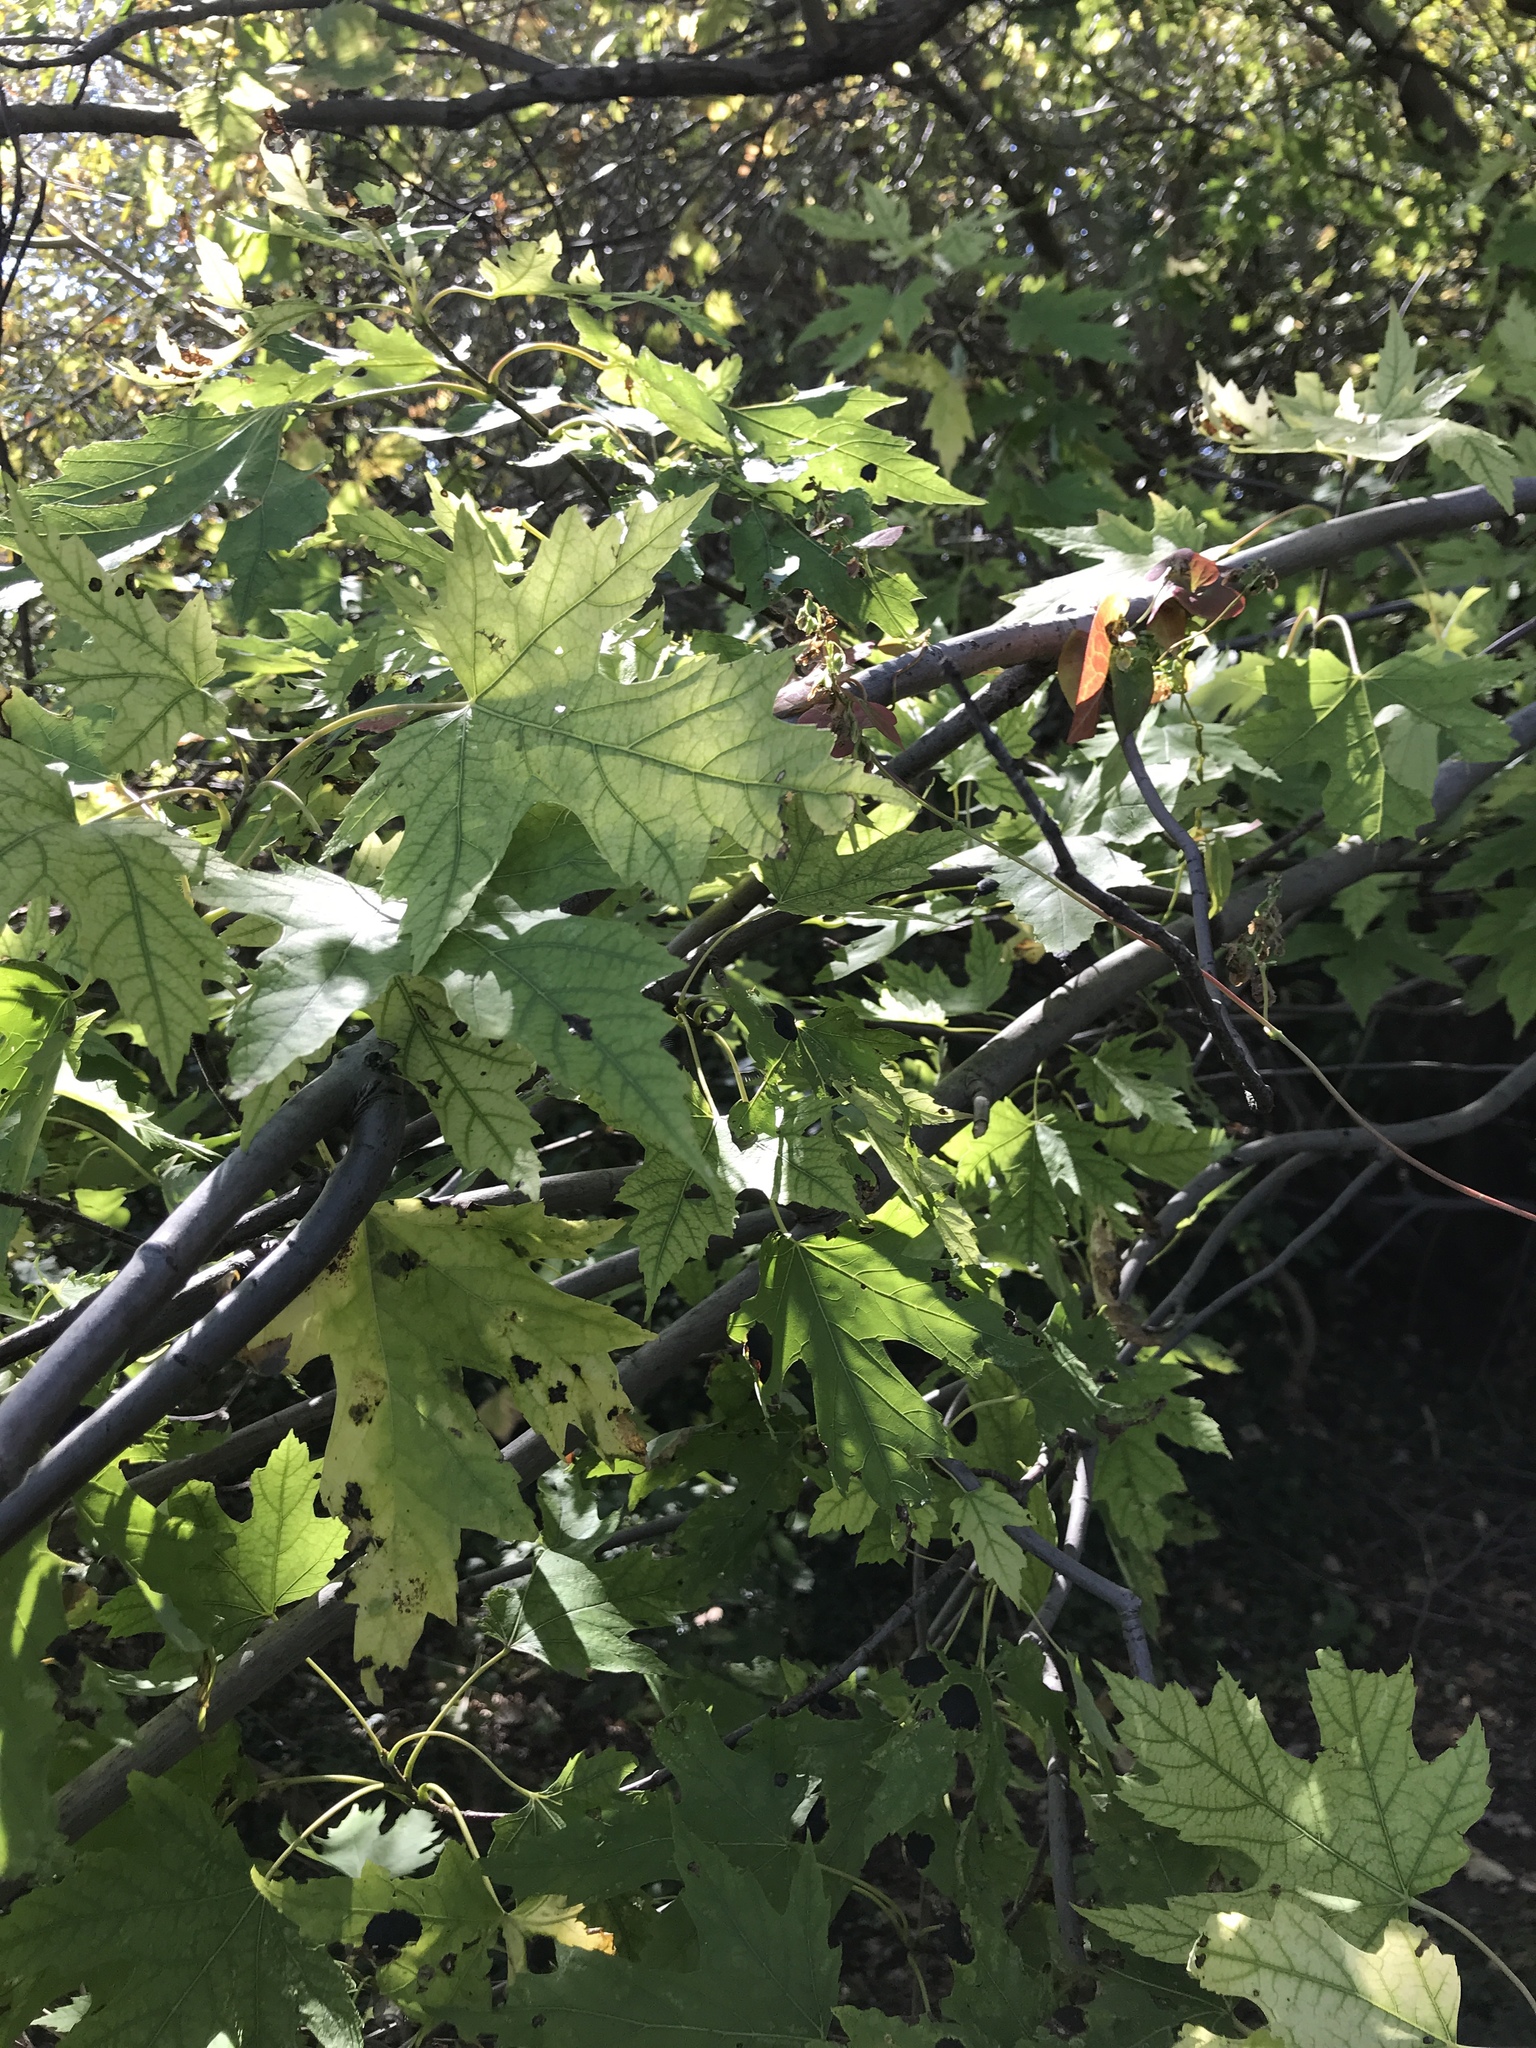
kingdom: Plantae
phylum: Tracheophyta
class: Magnoliopsida
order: Sapindales
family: Sapindaceae
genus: Acer
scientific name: Acer saccharinum
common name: Silver maple
